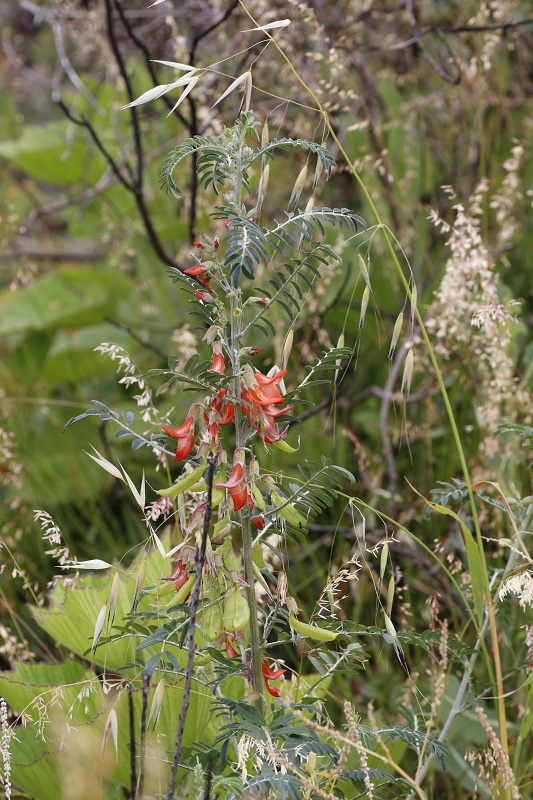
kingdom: Plantae
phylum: Tracheophyta
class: Magnoliopsida
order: Fabales
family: Fabaceae
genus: Lessertia
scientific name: Lessertia frutescens
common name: Balloon-pea
